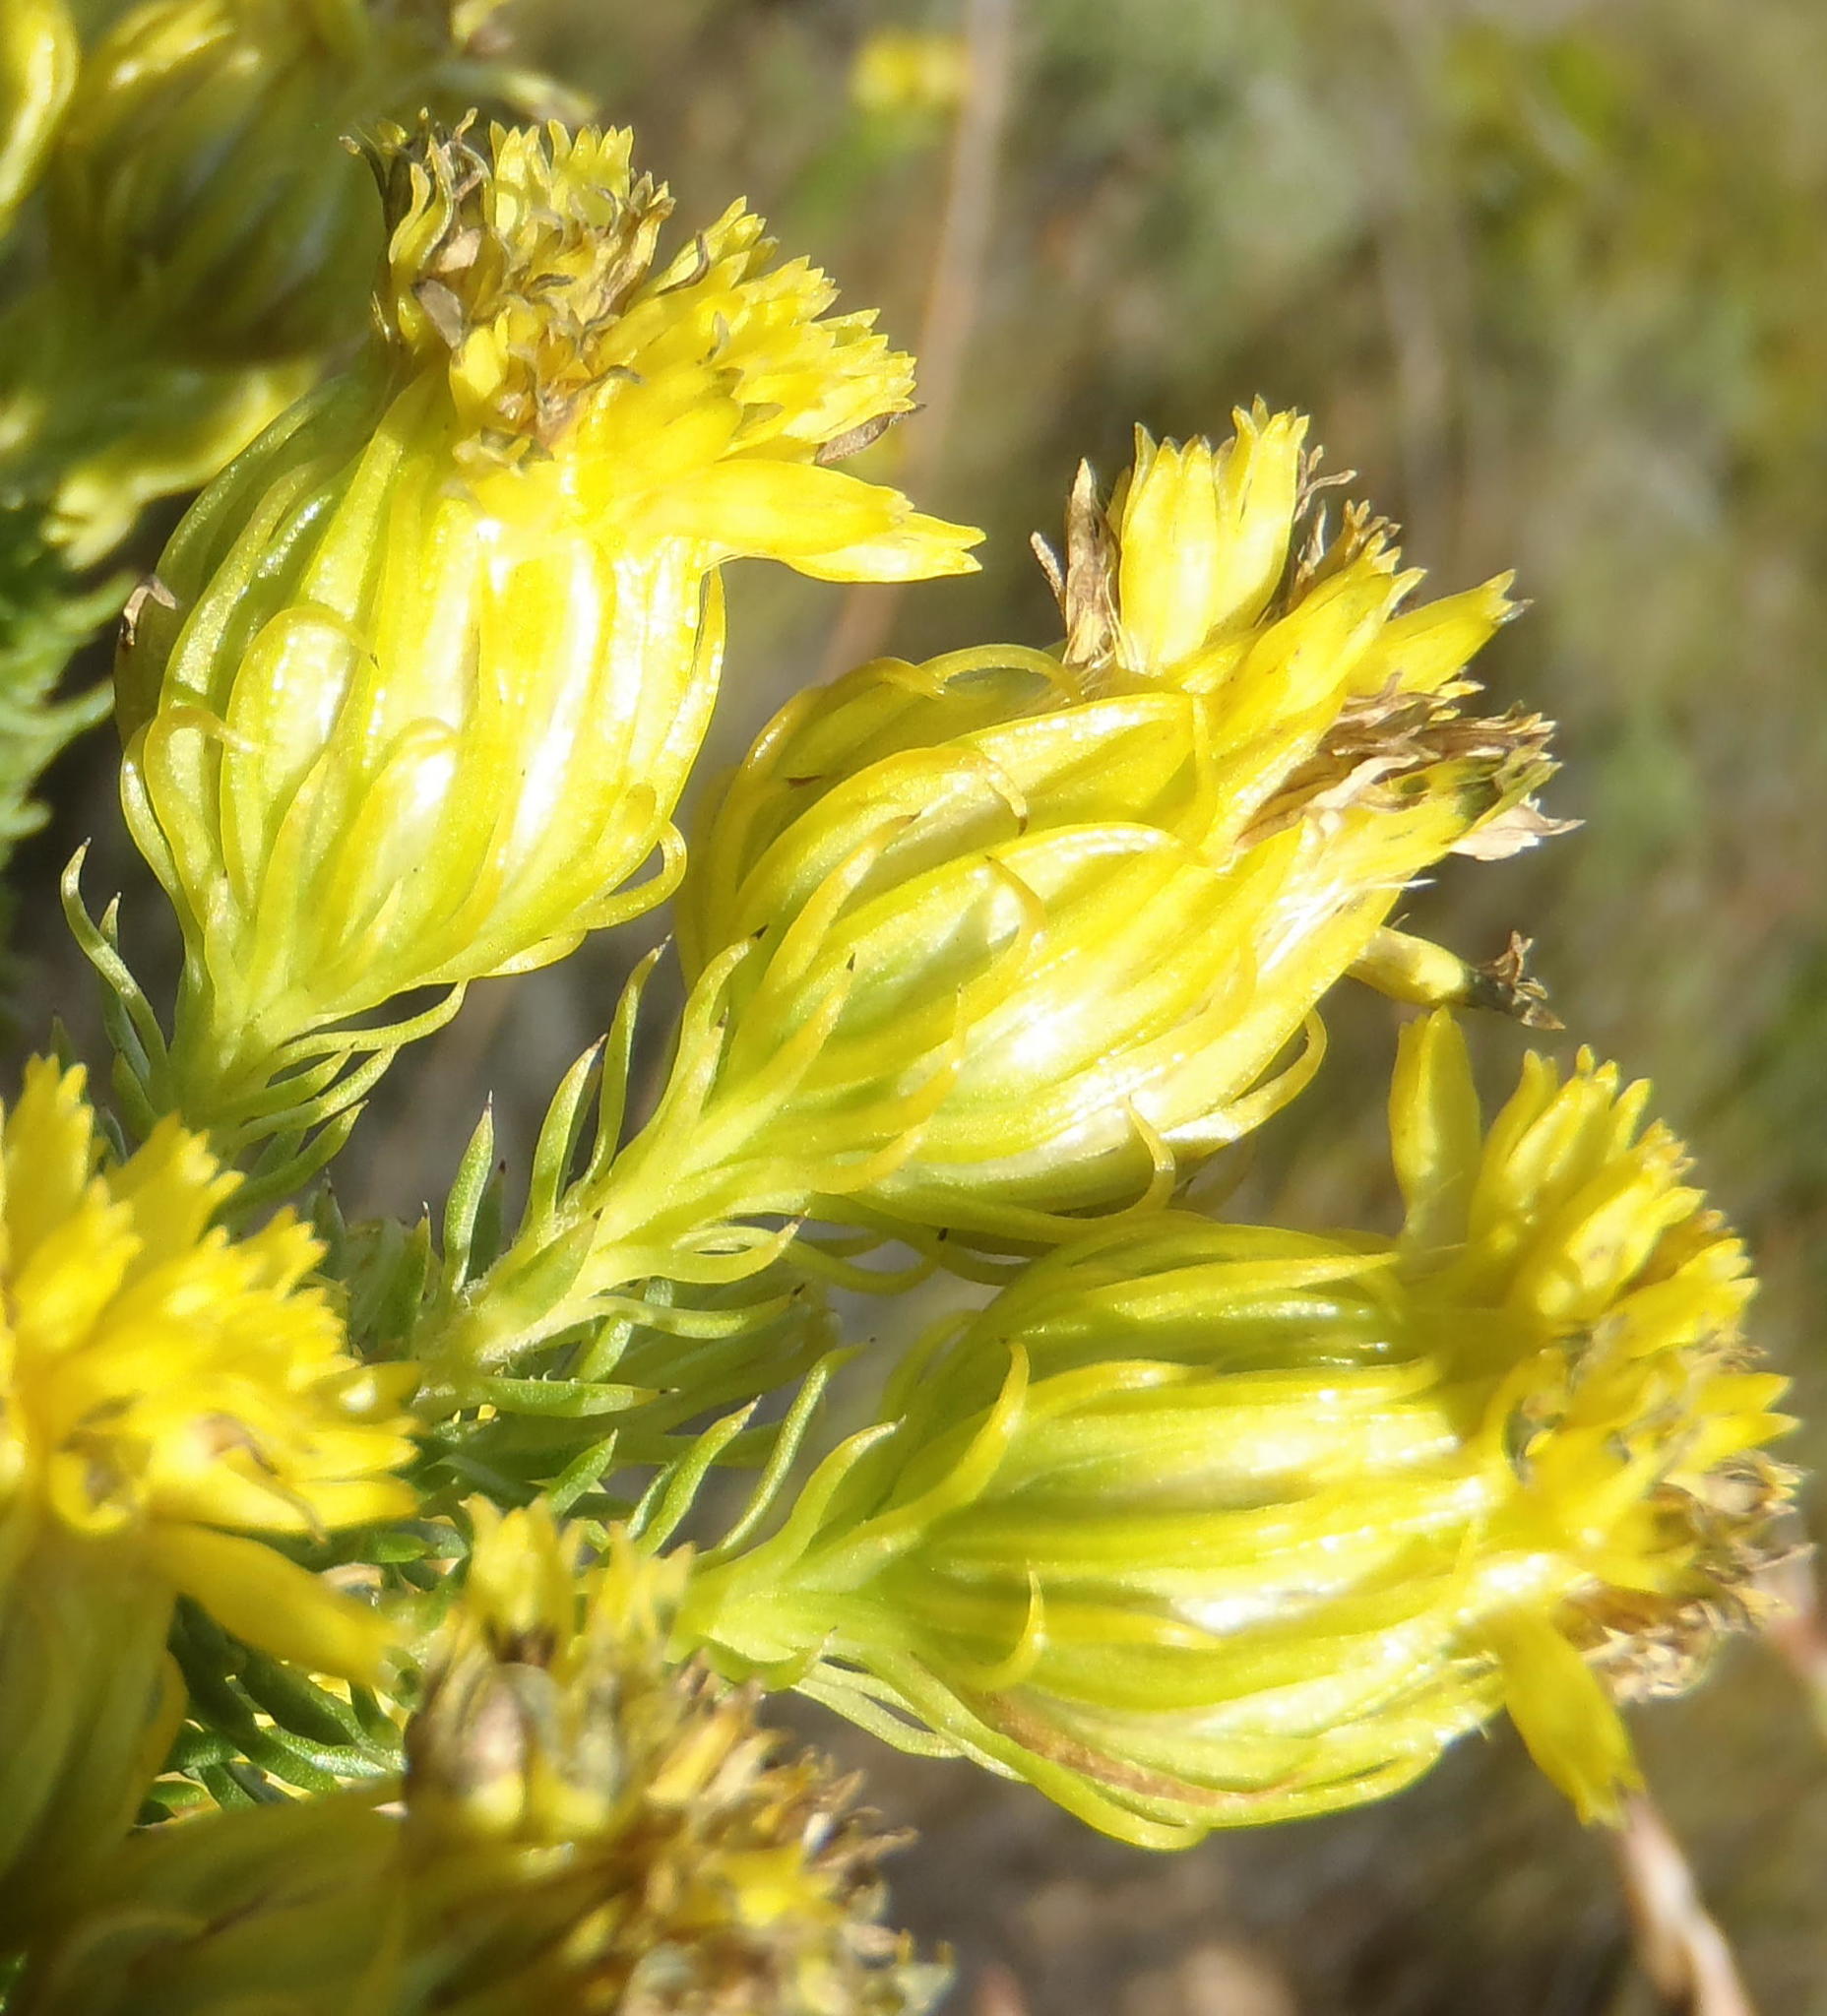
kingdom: Plantae
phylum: Tracheophyta
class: Magnoliopsida
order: Asterales
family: Asteraceae
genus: Pteronia
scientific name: Pteronia camphorata
